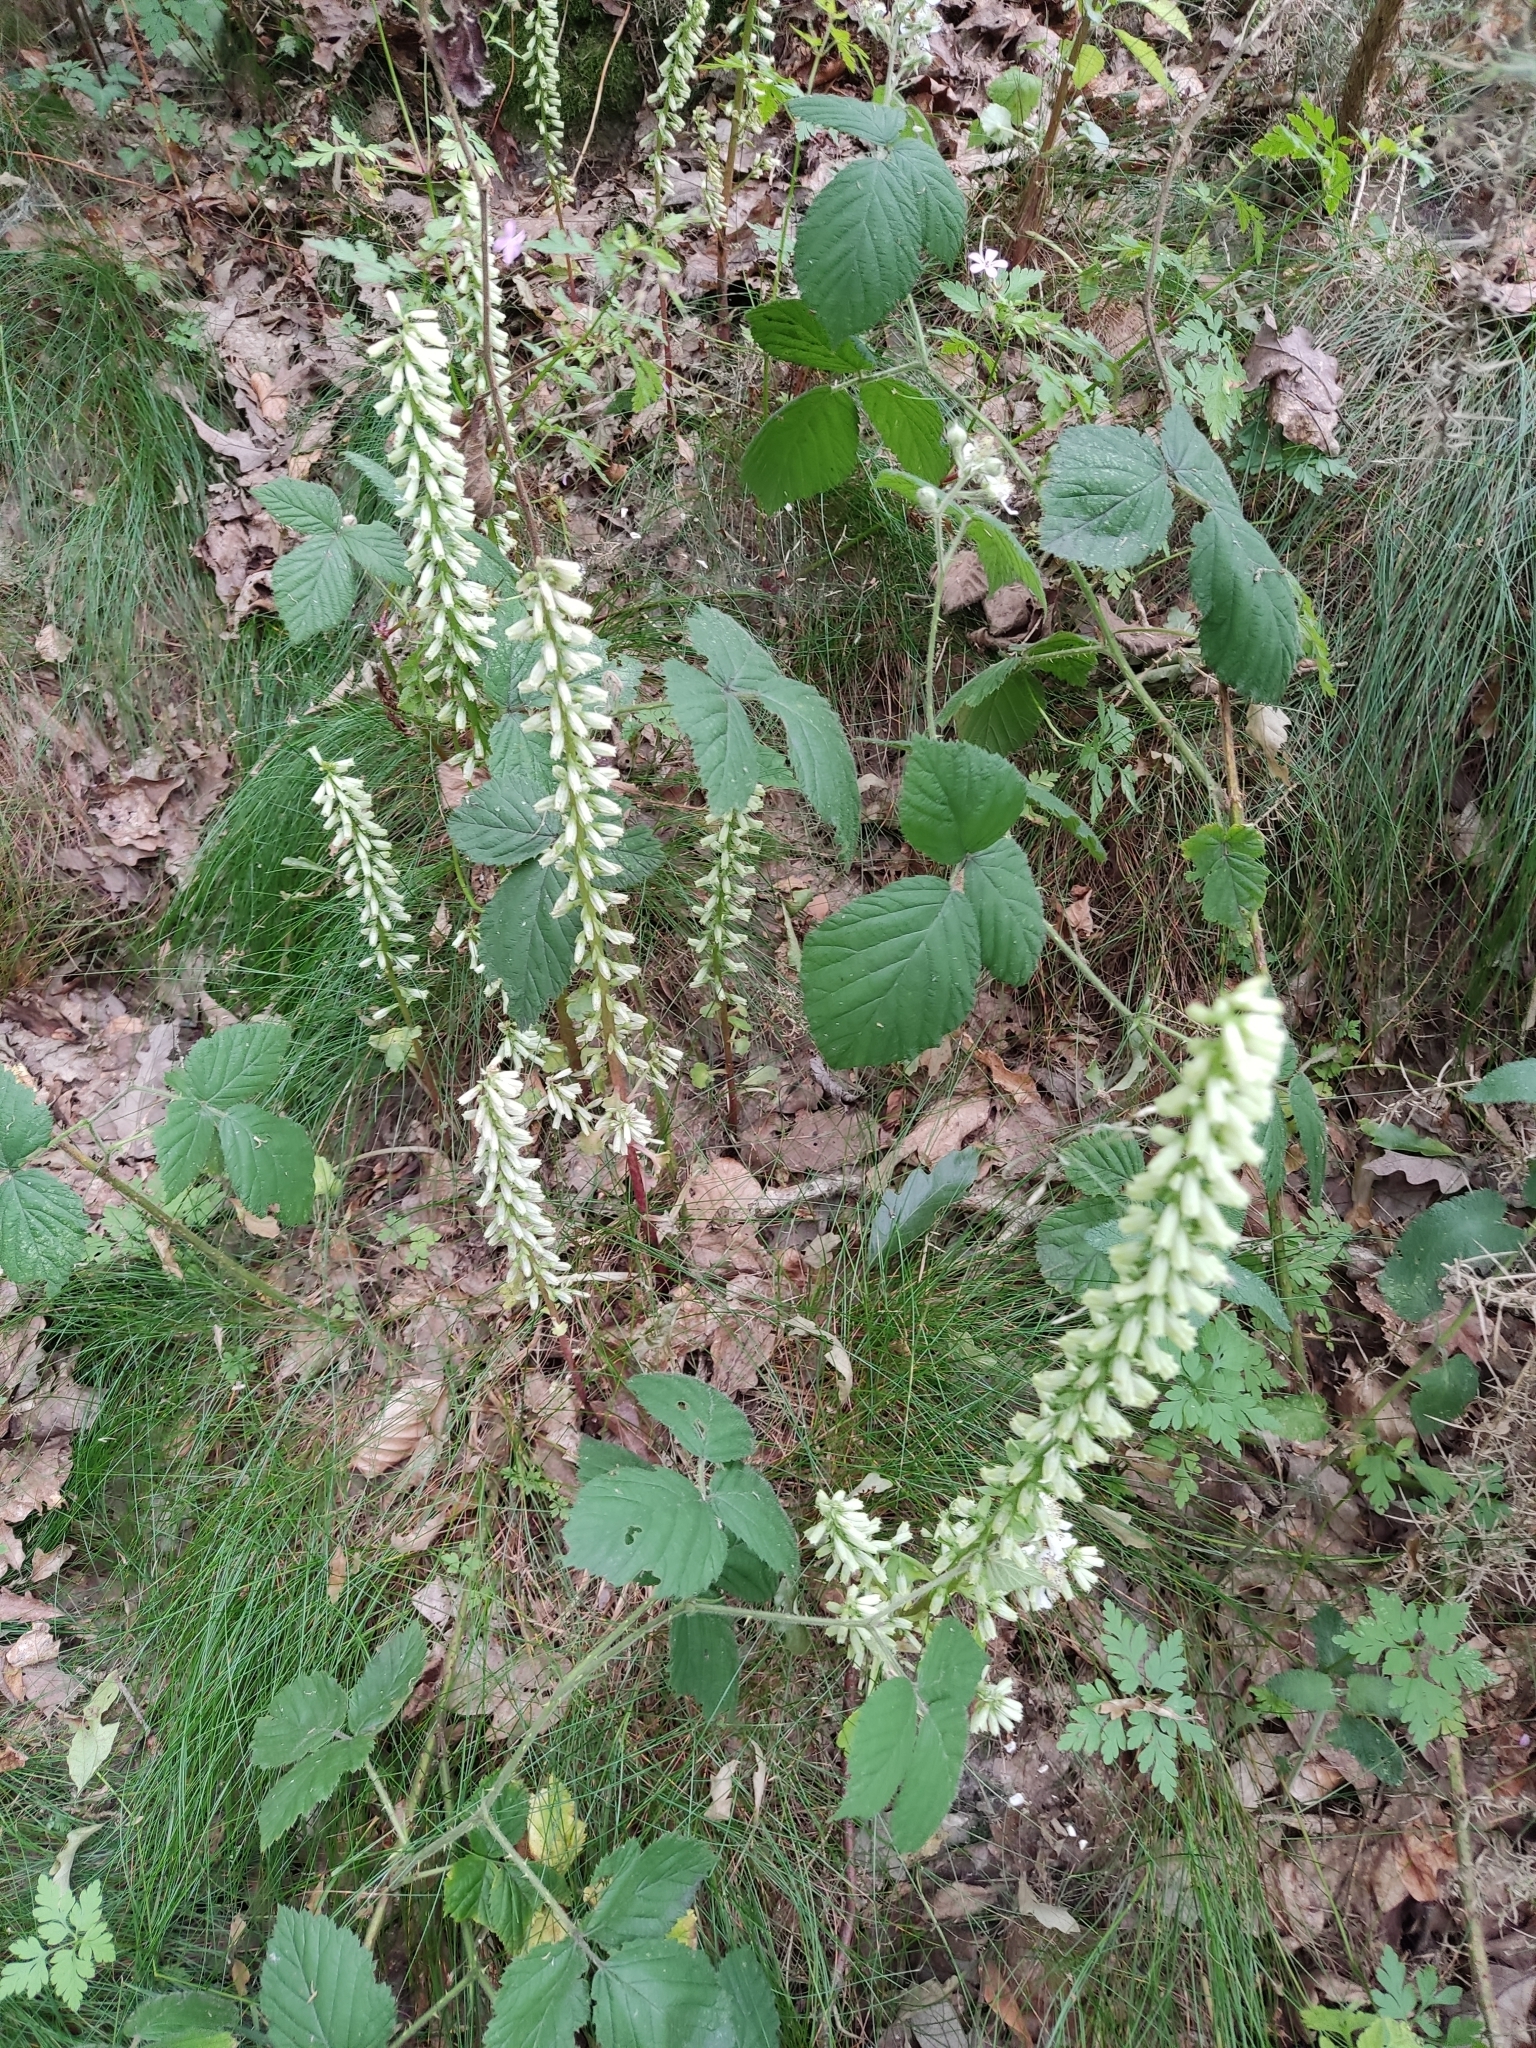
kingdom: Plantae
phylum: Tracheophyta
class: Magnoliopsida
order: Saxifragales
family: Crassulaceae
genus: Umbilicus
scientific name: Umbilicus rupestris
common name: Navelwort
